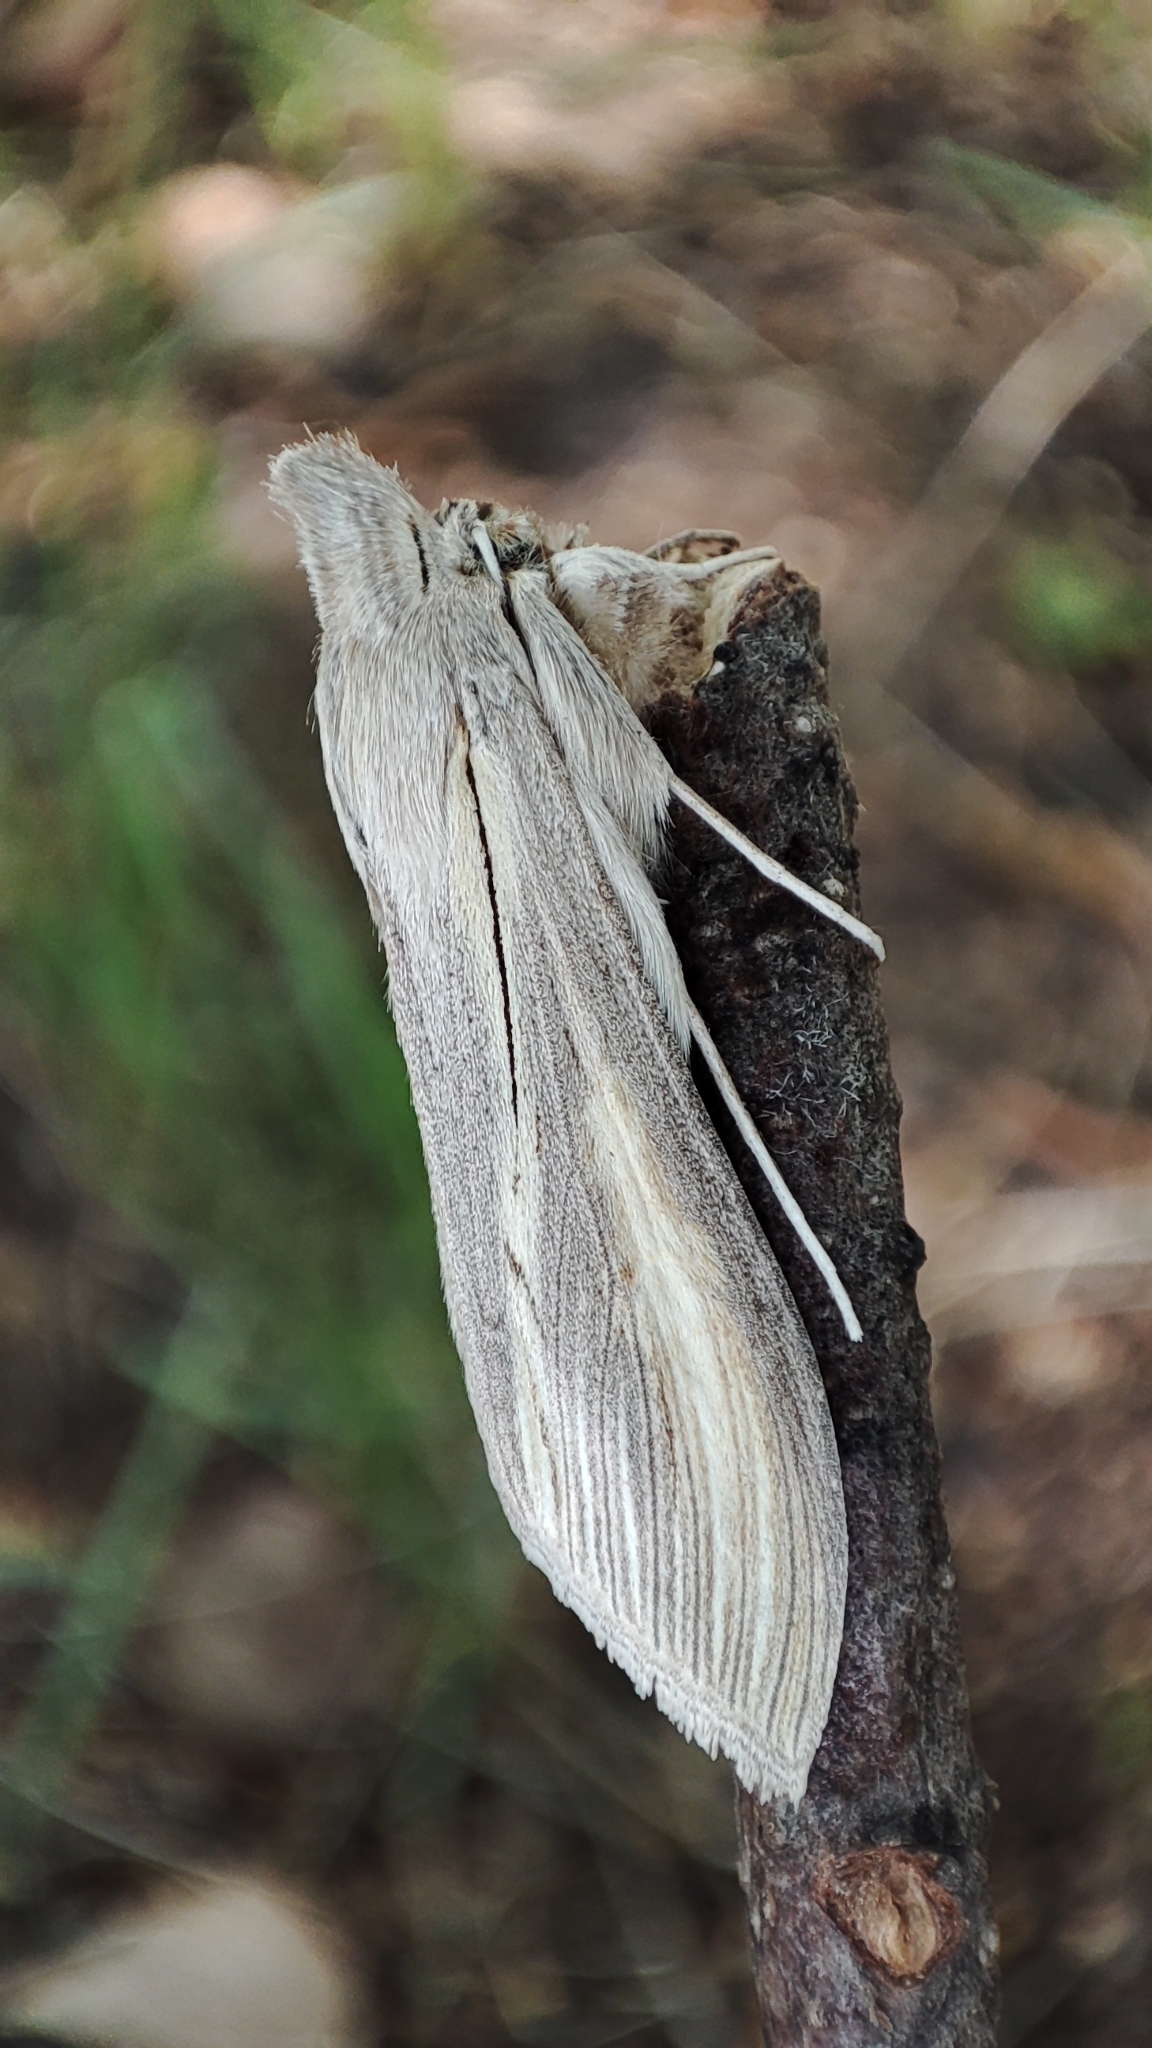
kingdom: Animalia
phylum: Arthropoda
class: Insecta
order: Lepidoptera
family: Noctuidae
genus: Cucullia
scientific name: Cucullia biornata
